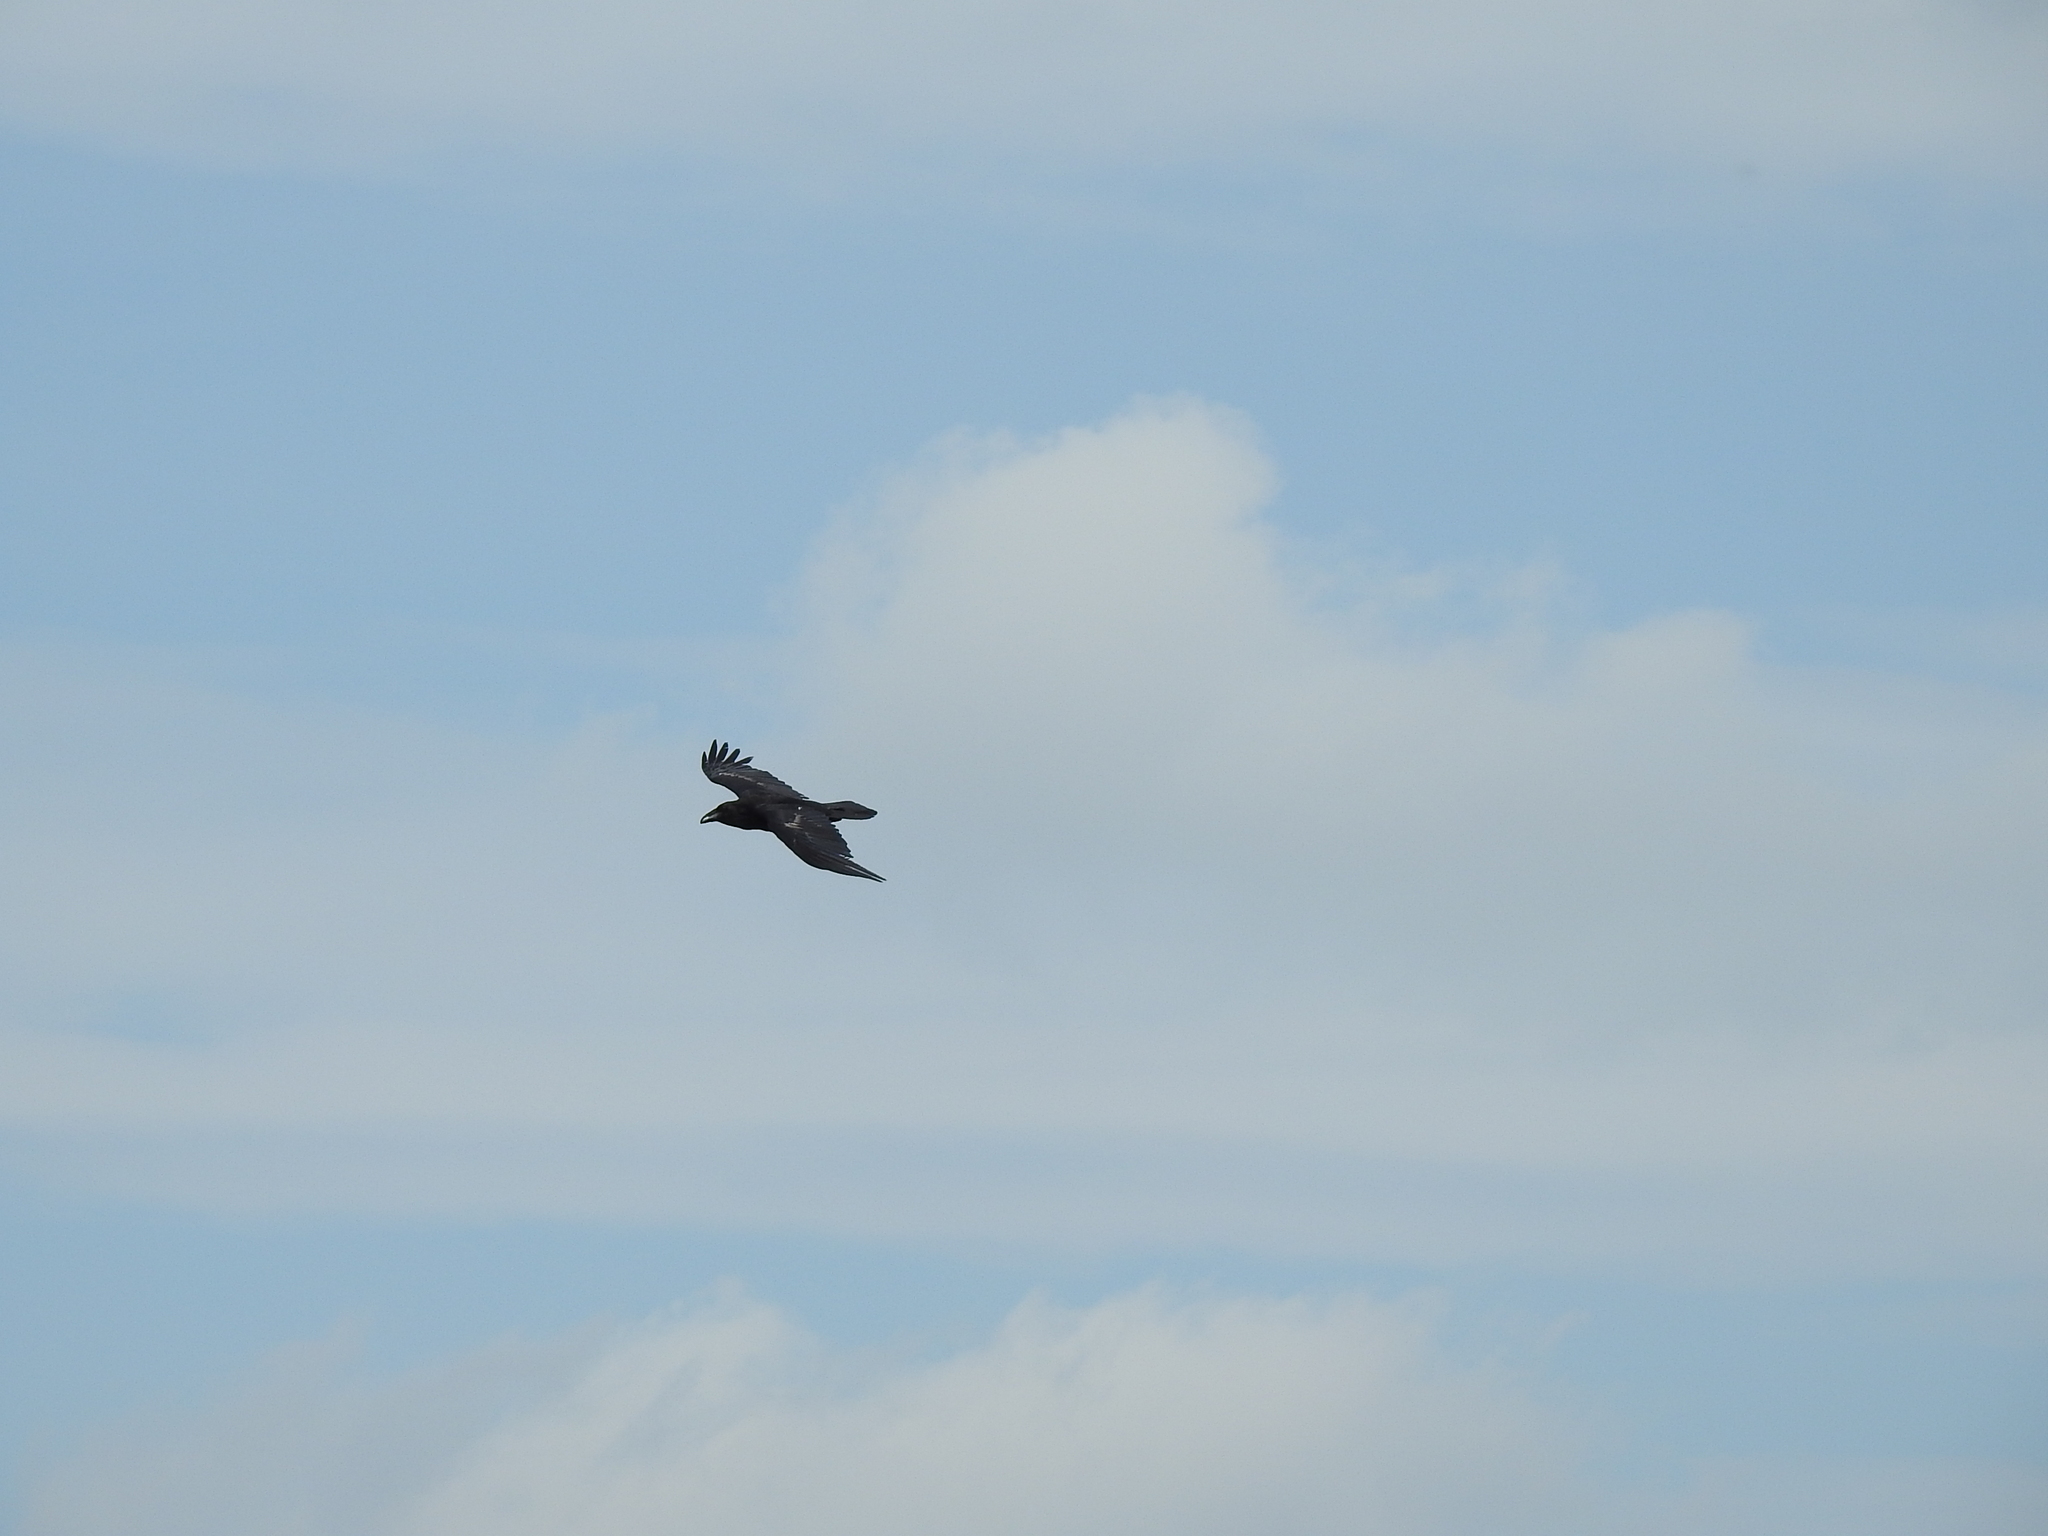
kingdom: Animalia
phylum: Chordata
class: Aves
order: Passeriformes
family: Corvidae
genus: Corvus
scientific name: Corvus corax
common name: Common raven
